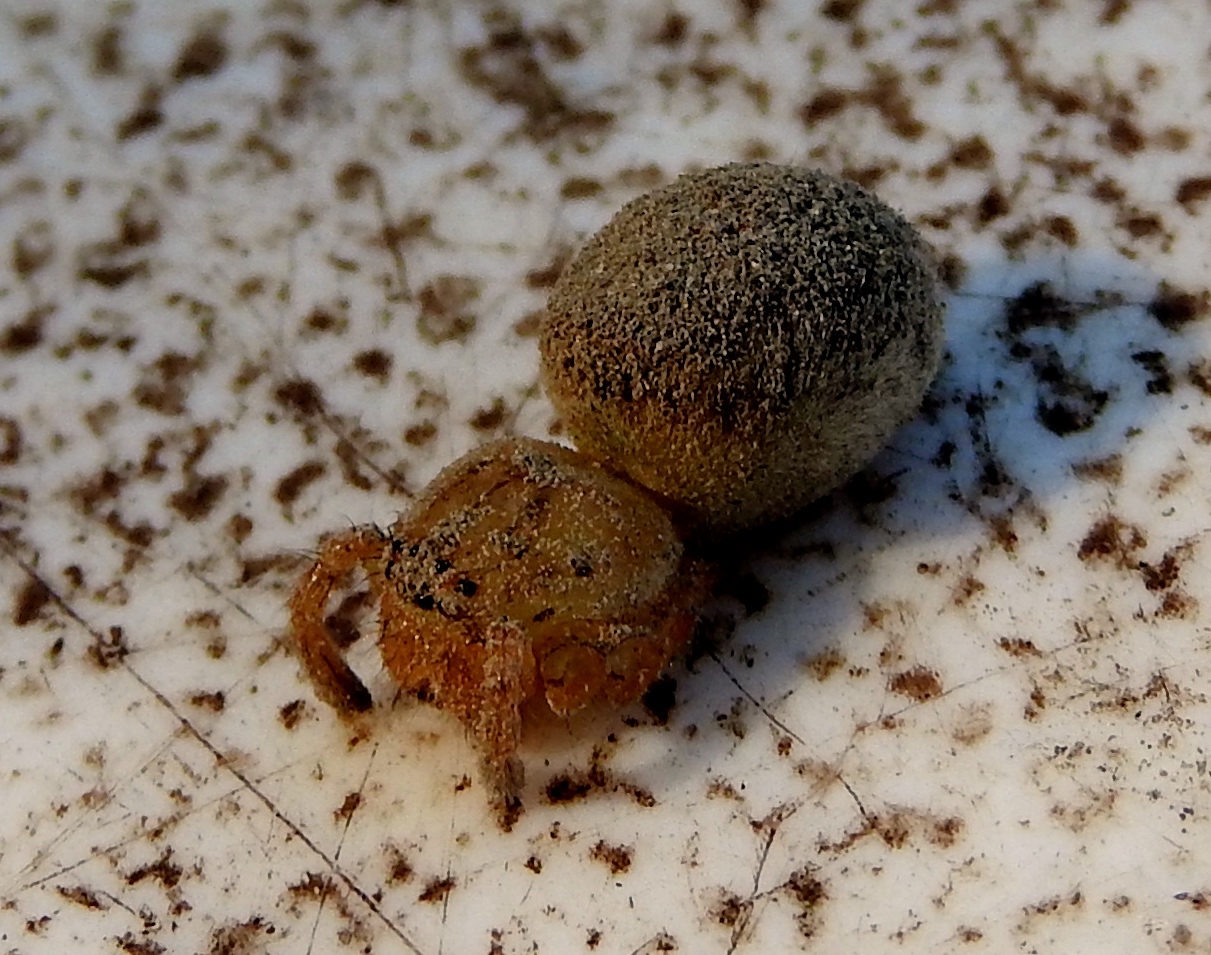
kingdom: Animalia
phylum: Arthropoda
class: Arachnida
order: Araneae
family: Sparassidae
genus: Curicaberis
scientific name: Curicaberis culiacan
